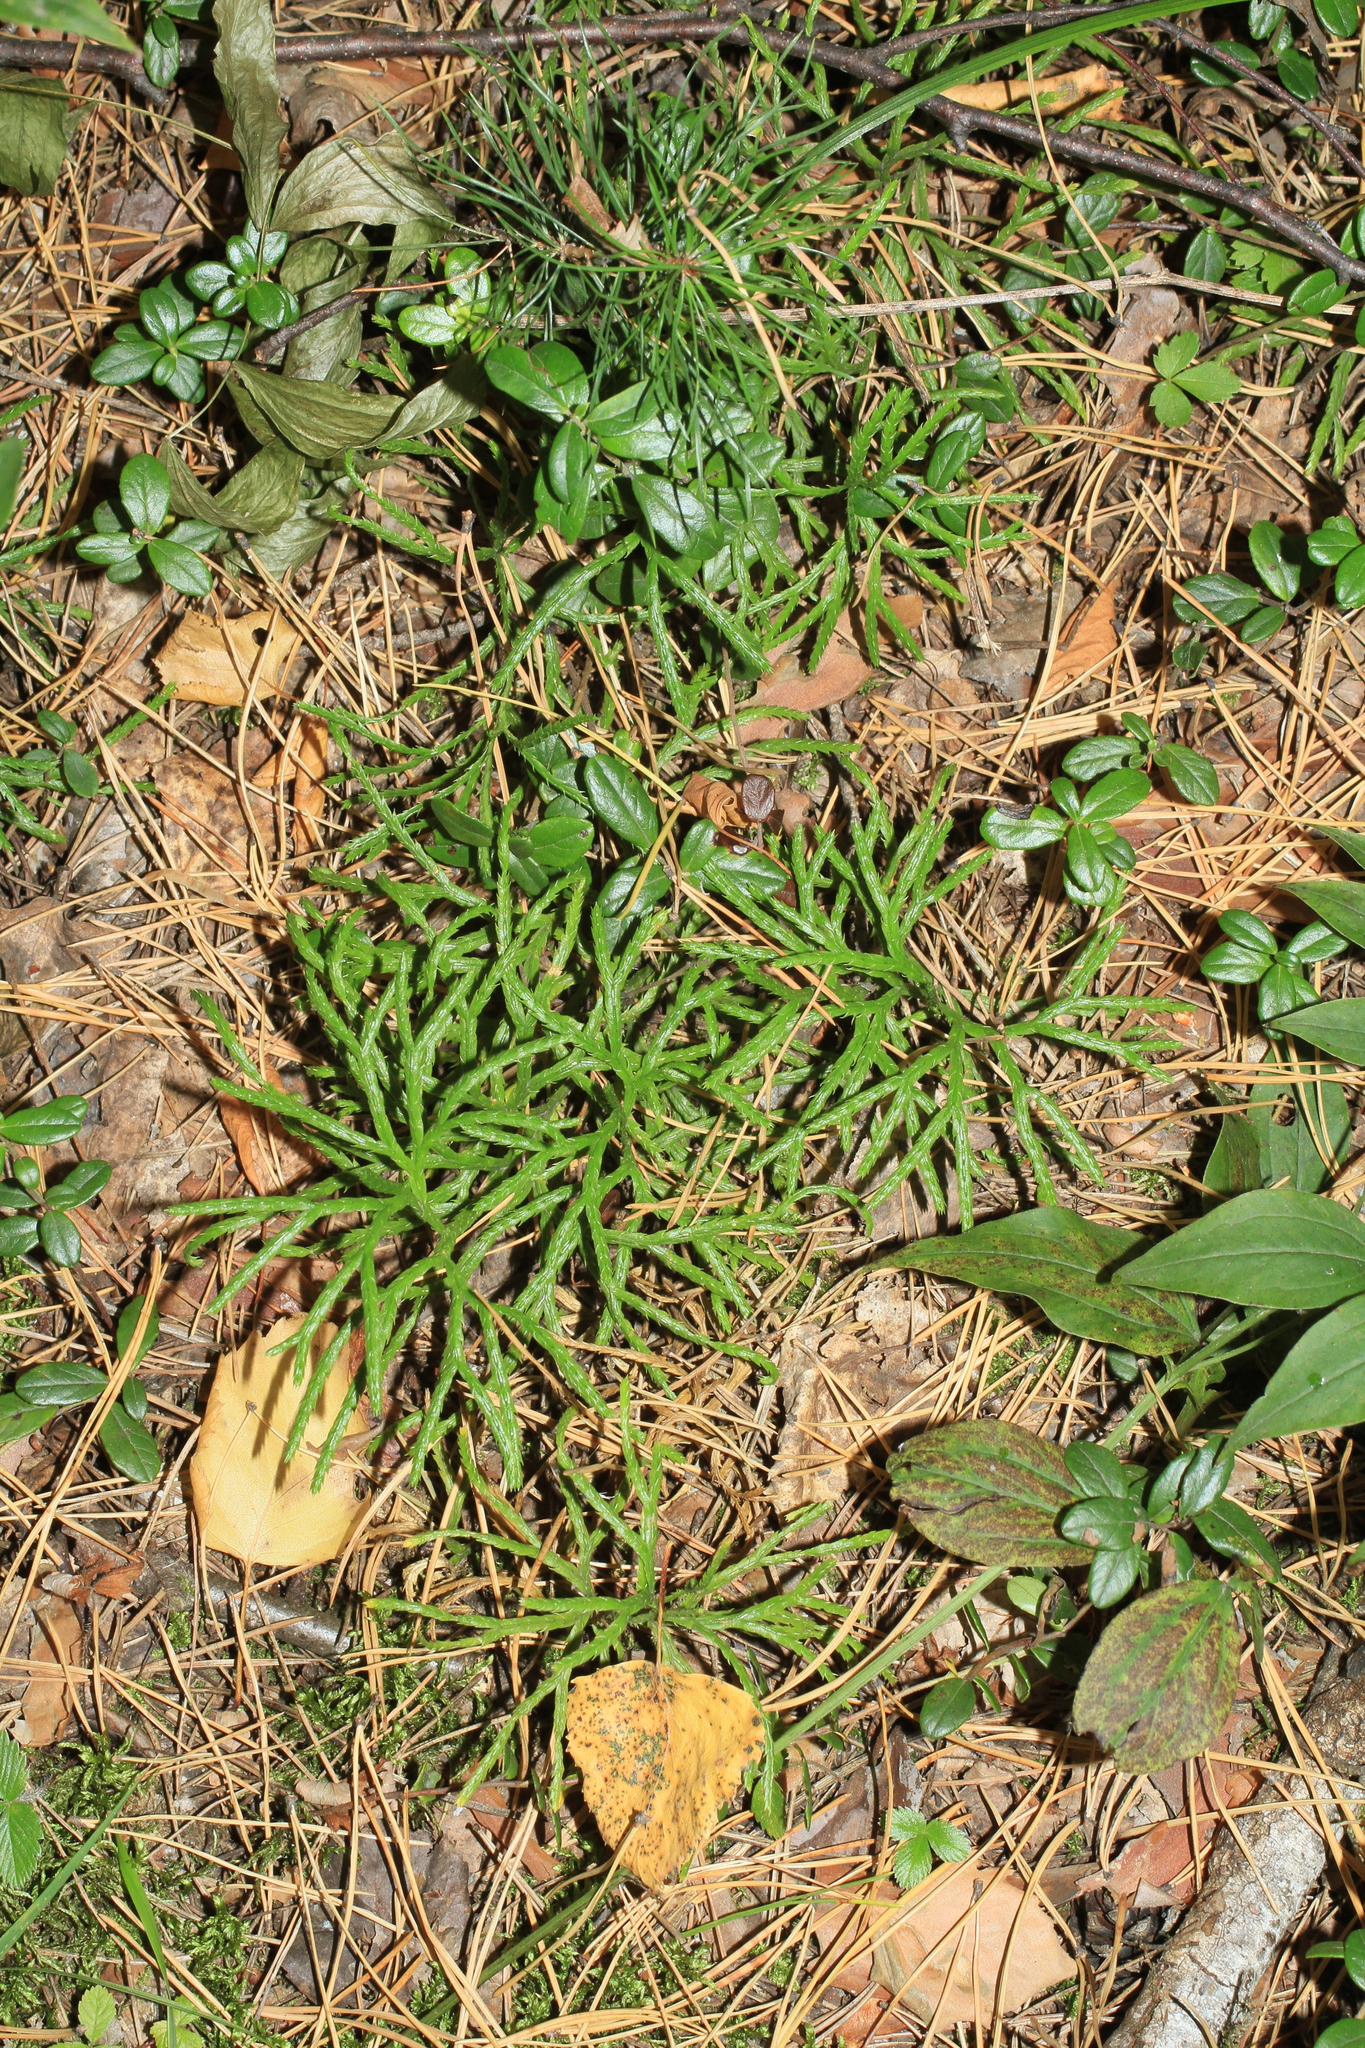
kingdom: Plantae
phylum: Tracheophyta
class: Lycopodiopsida
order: Lycopodiales
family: Lycopodiaceae
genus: Diphasiastrum
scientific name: Diphasiastrum complanatum
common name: Northern running-pine
